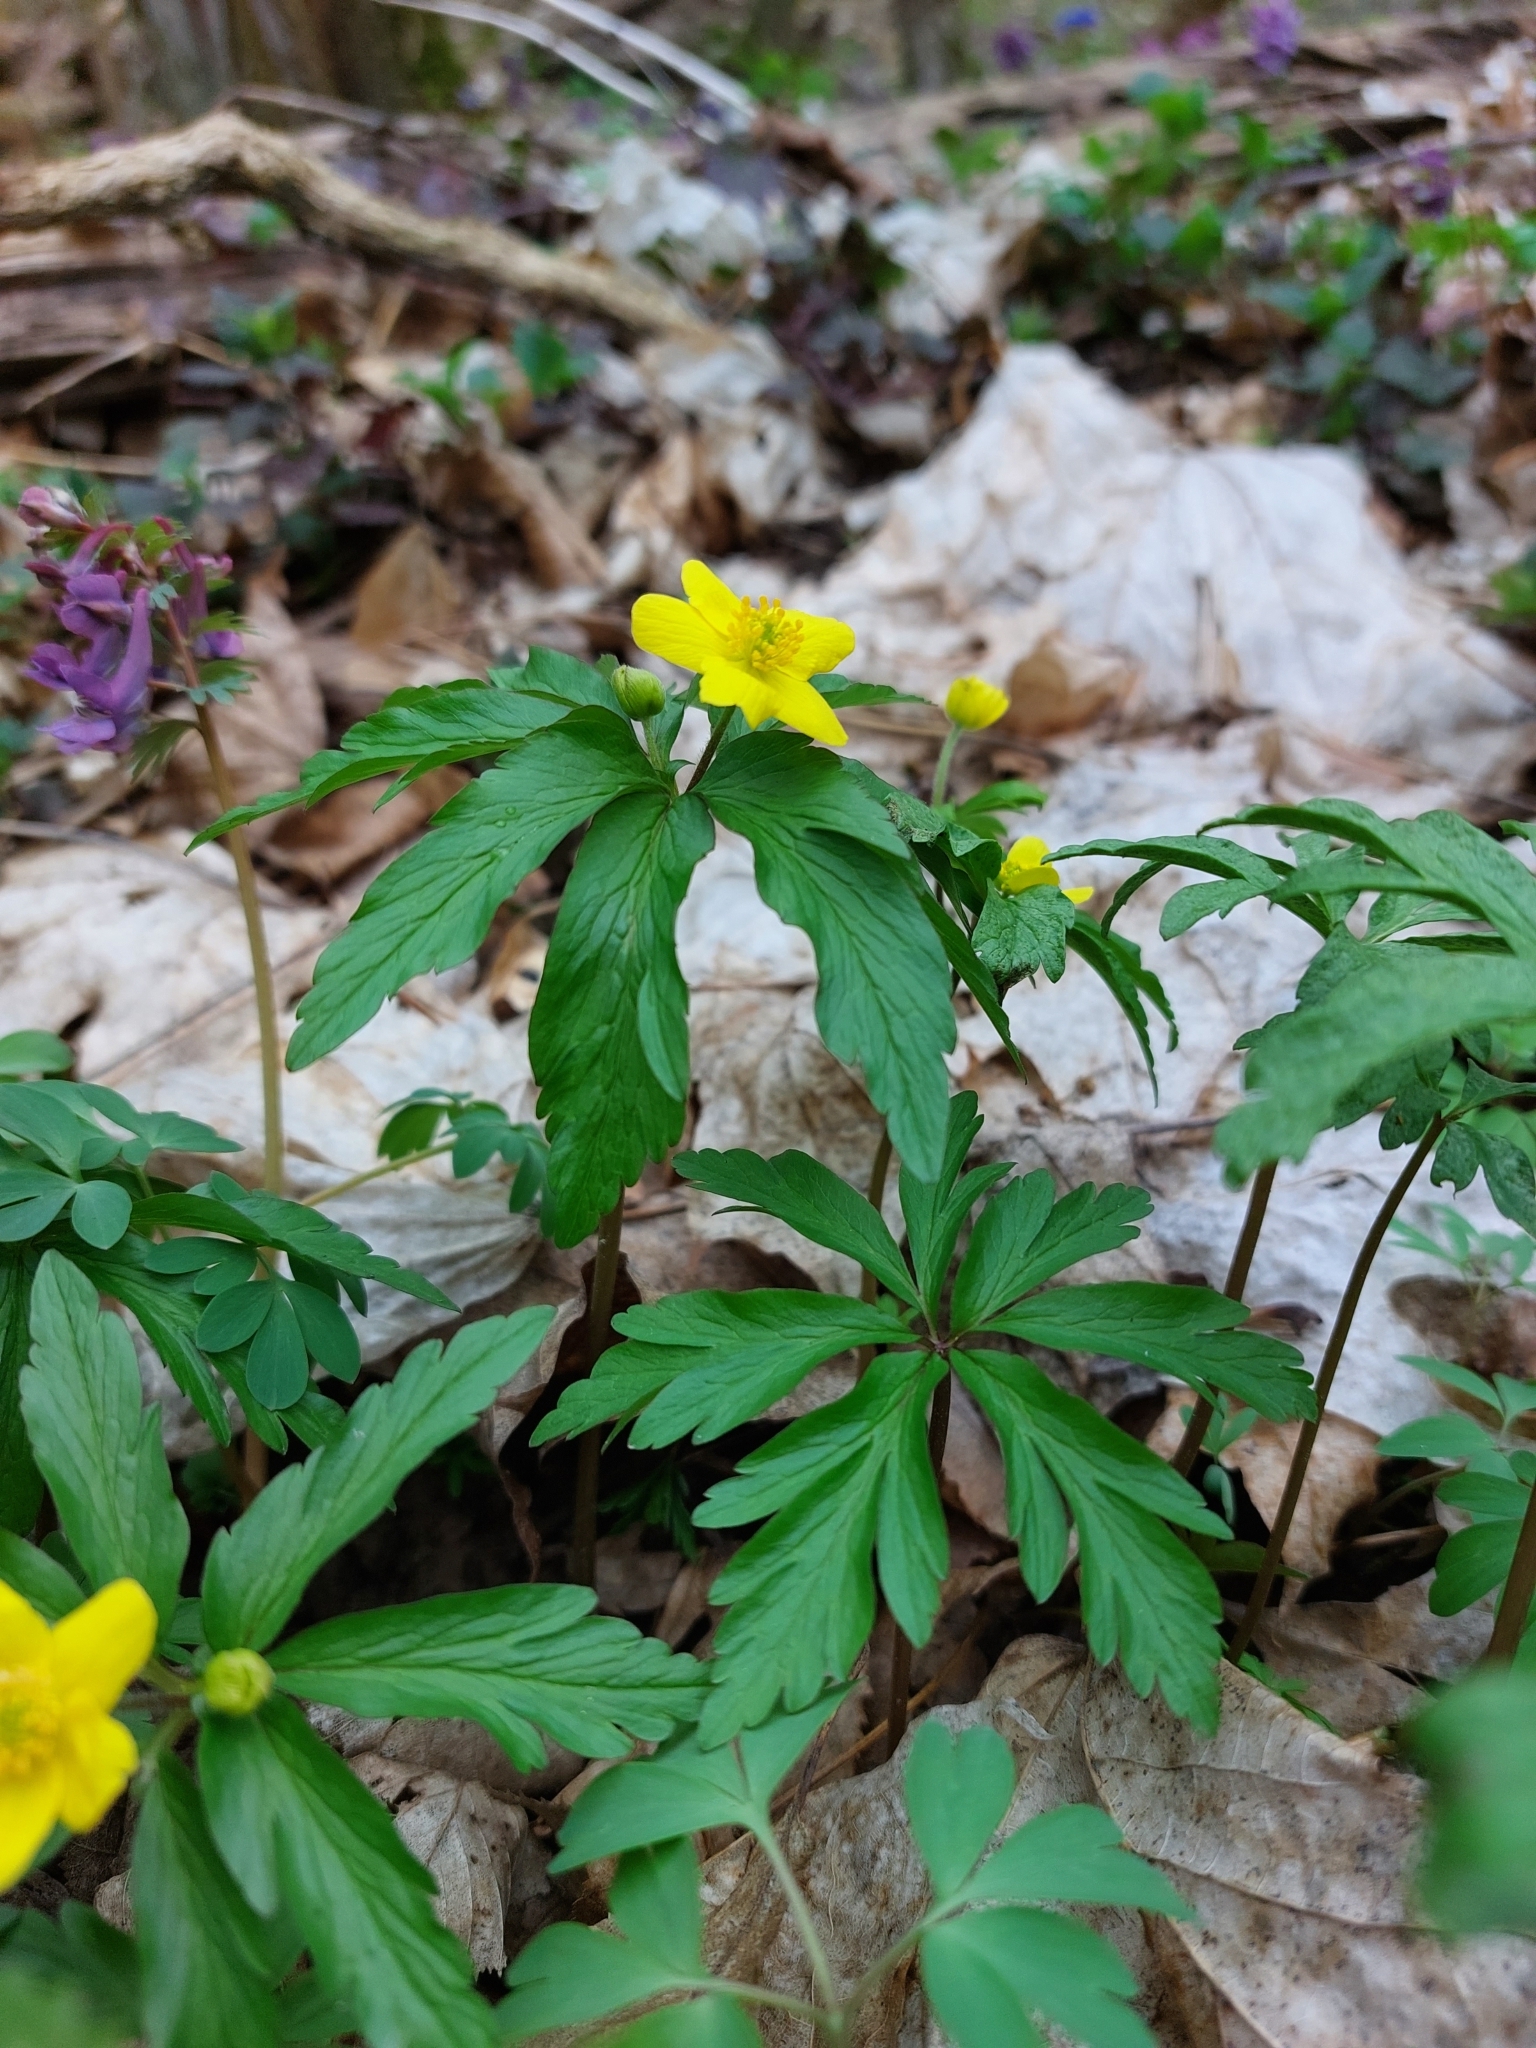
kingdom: Plantae
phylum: Tracheophyta
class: Magnoliopsida
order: Ranunculales
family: Ranunculaceae
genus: Anemone
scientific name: Anemone ranunculoides
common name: Yellow anemone
